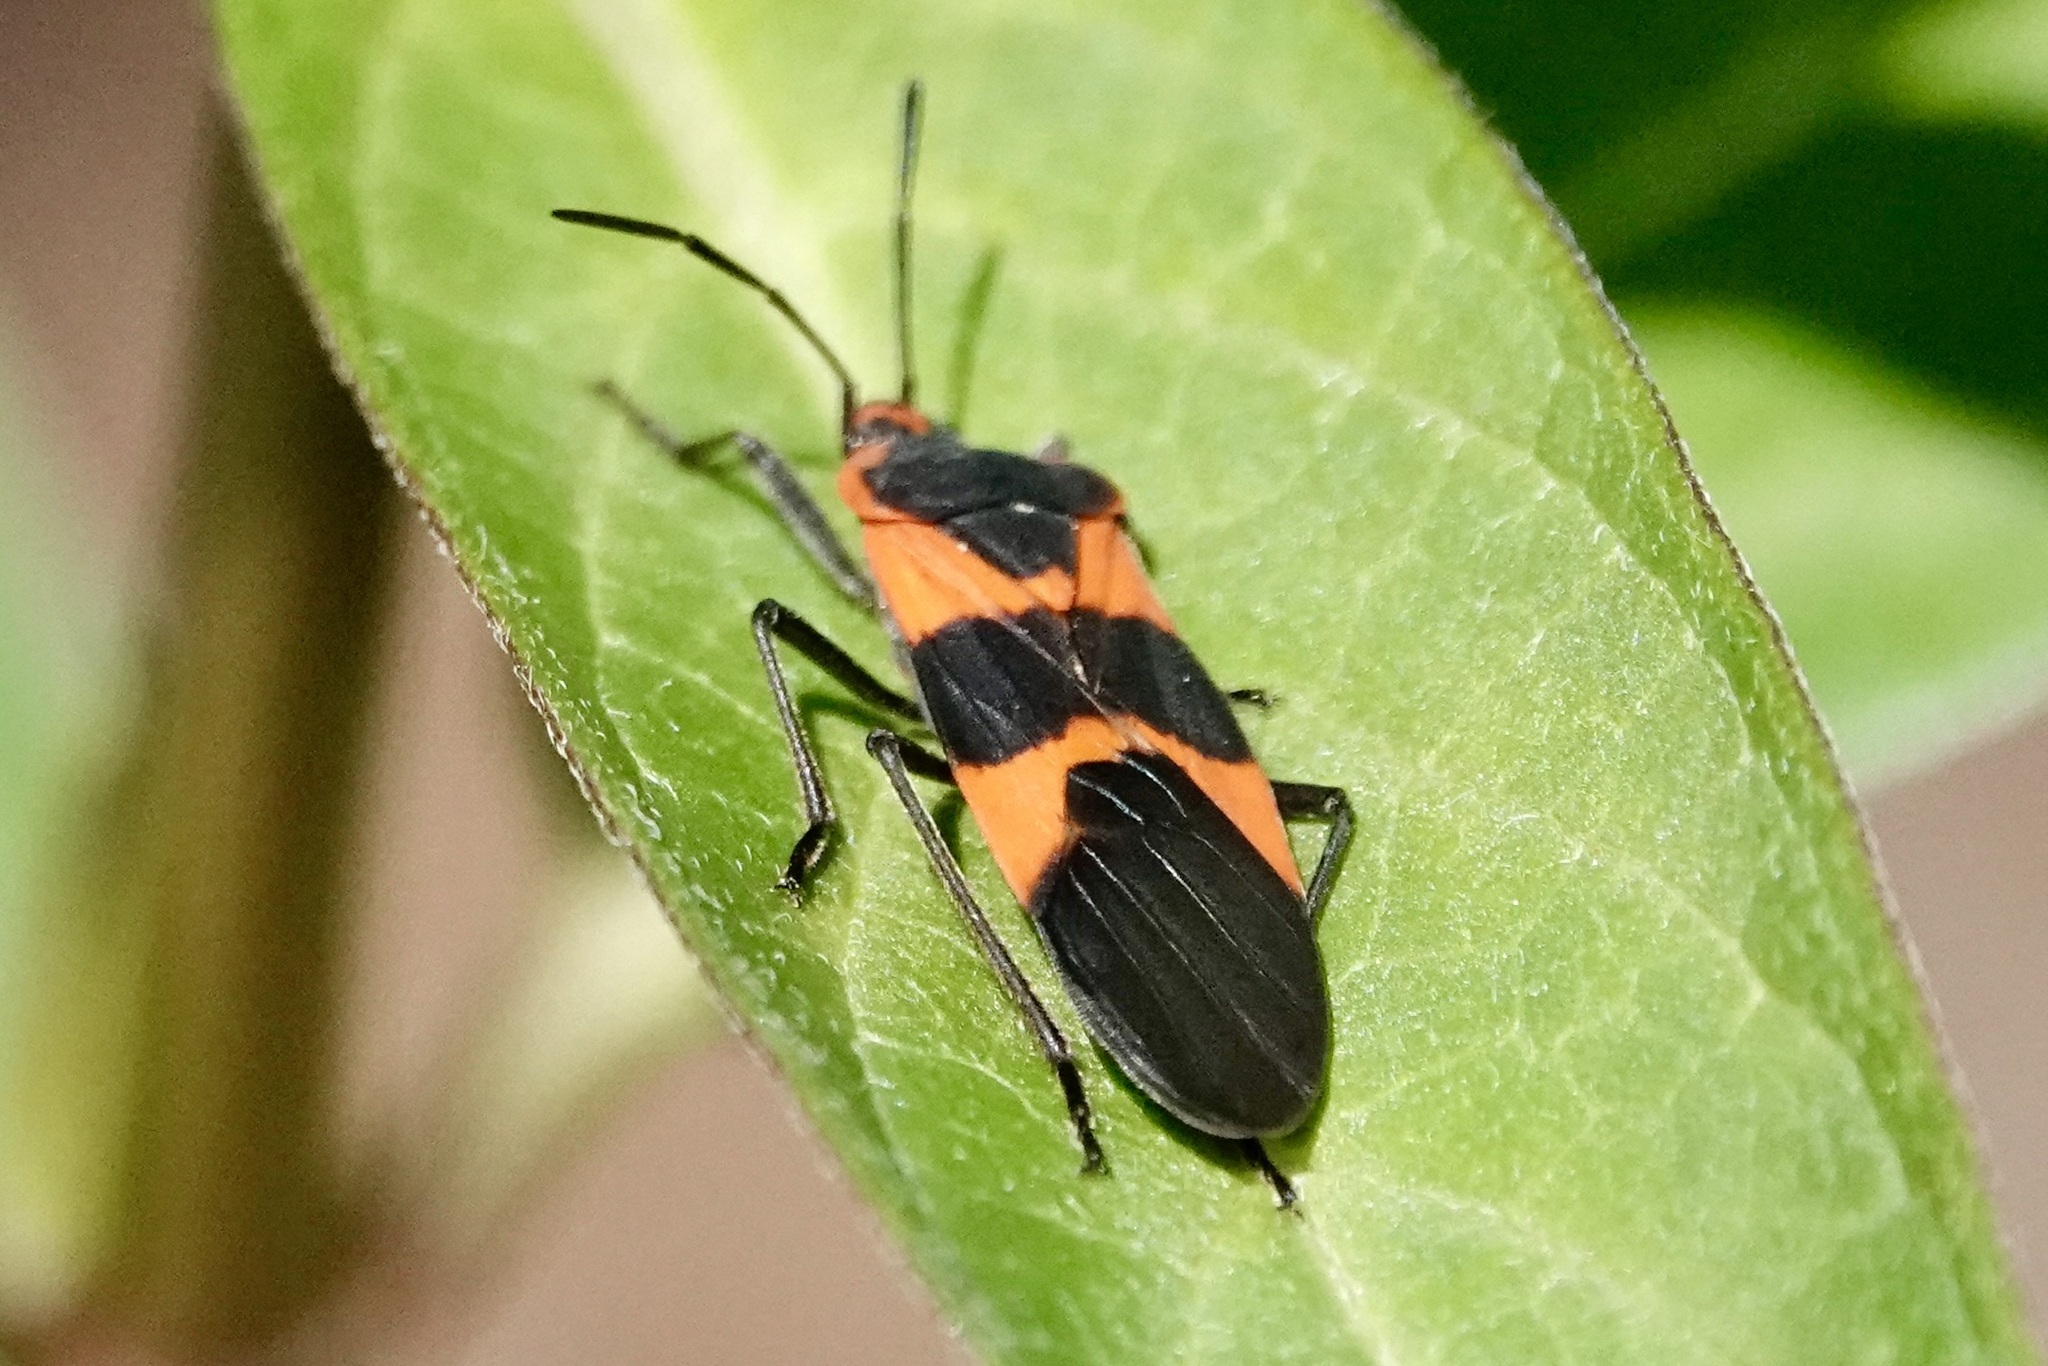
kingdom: Animalia
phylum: Arthropoda
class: Insecta
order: Hemiptera
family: Lygaeidae
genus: Oncopeltus
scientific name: Oncopeltus fasciatus
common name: Large milkweed bug
